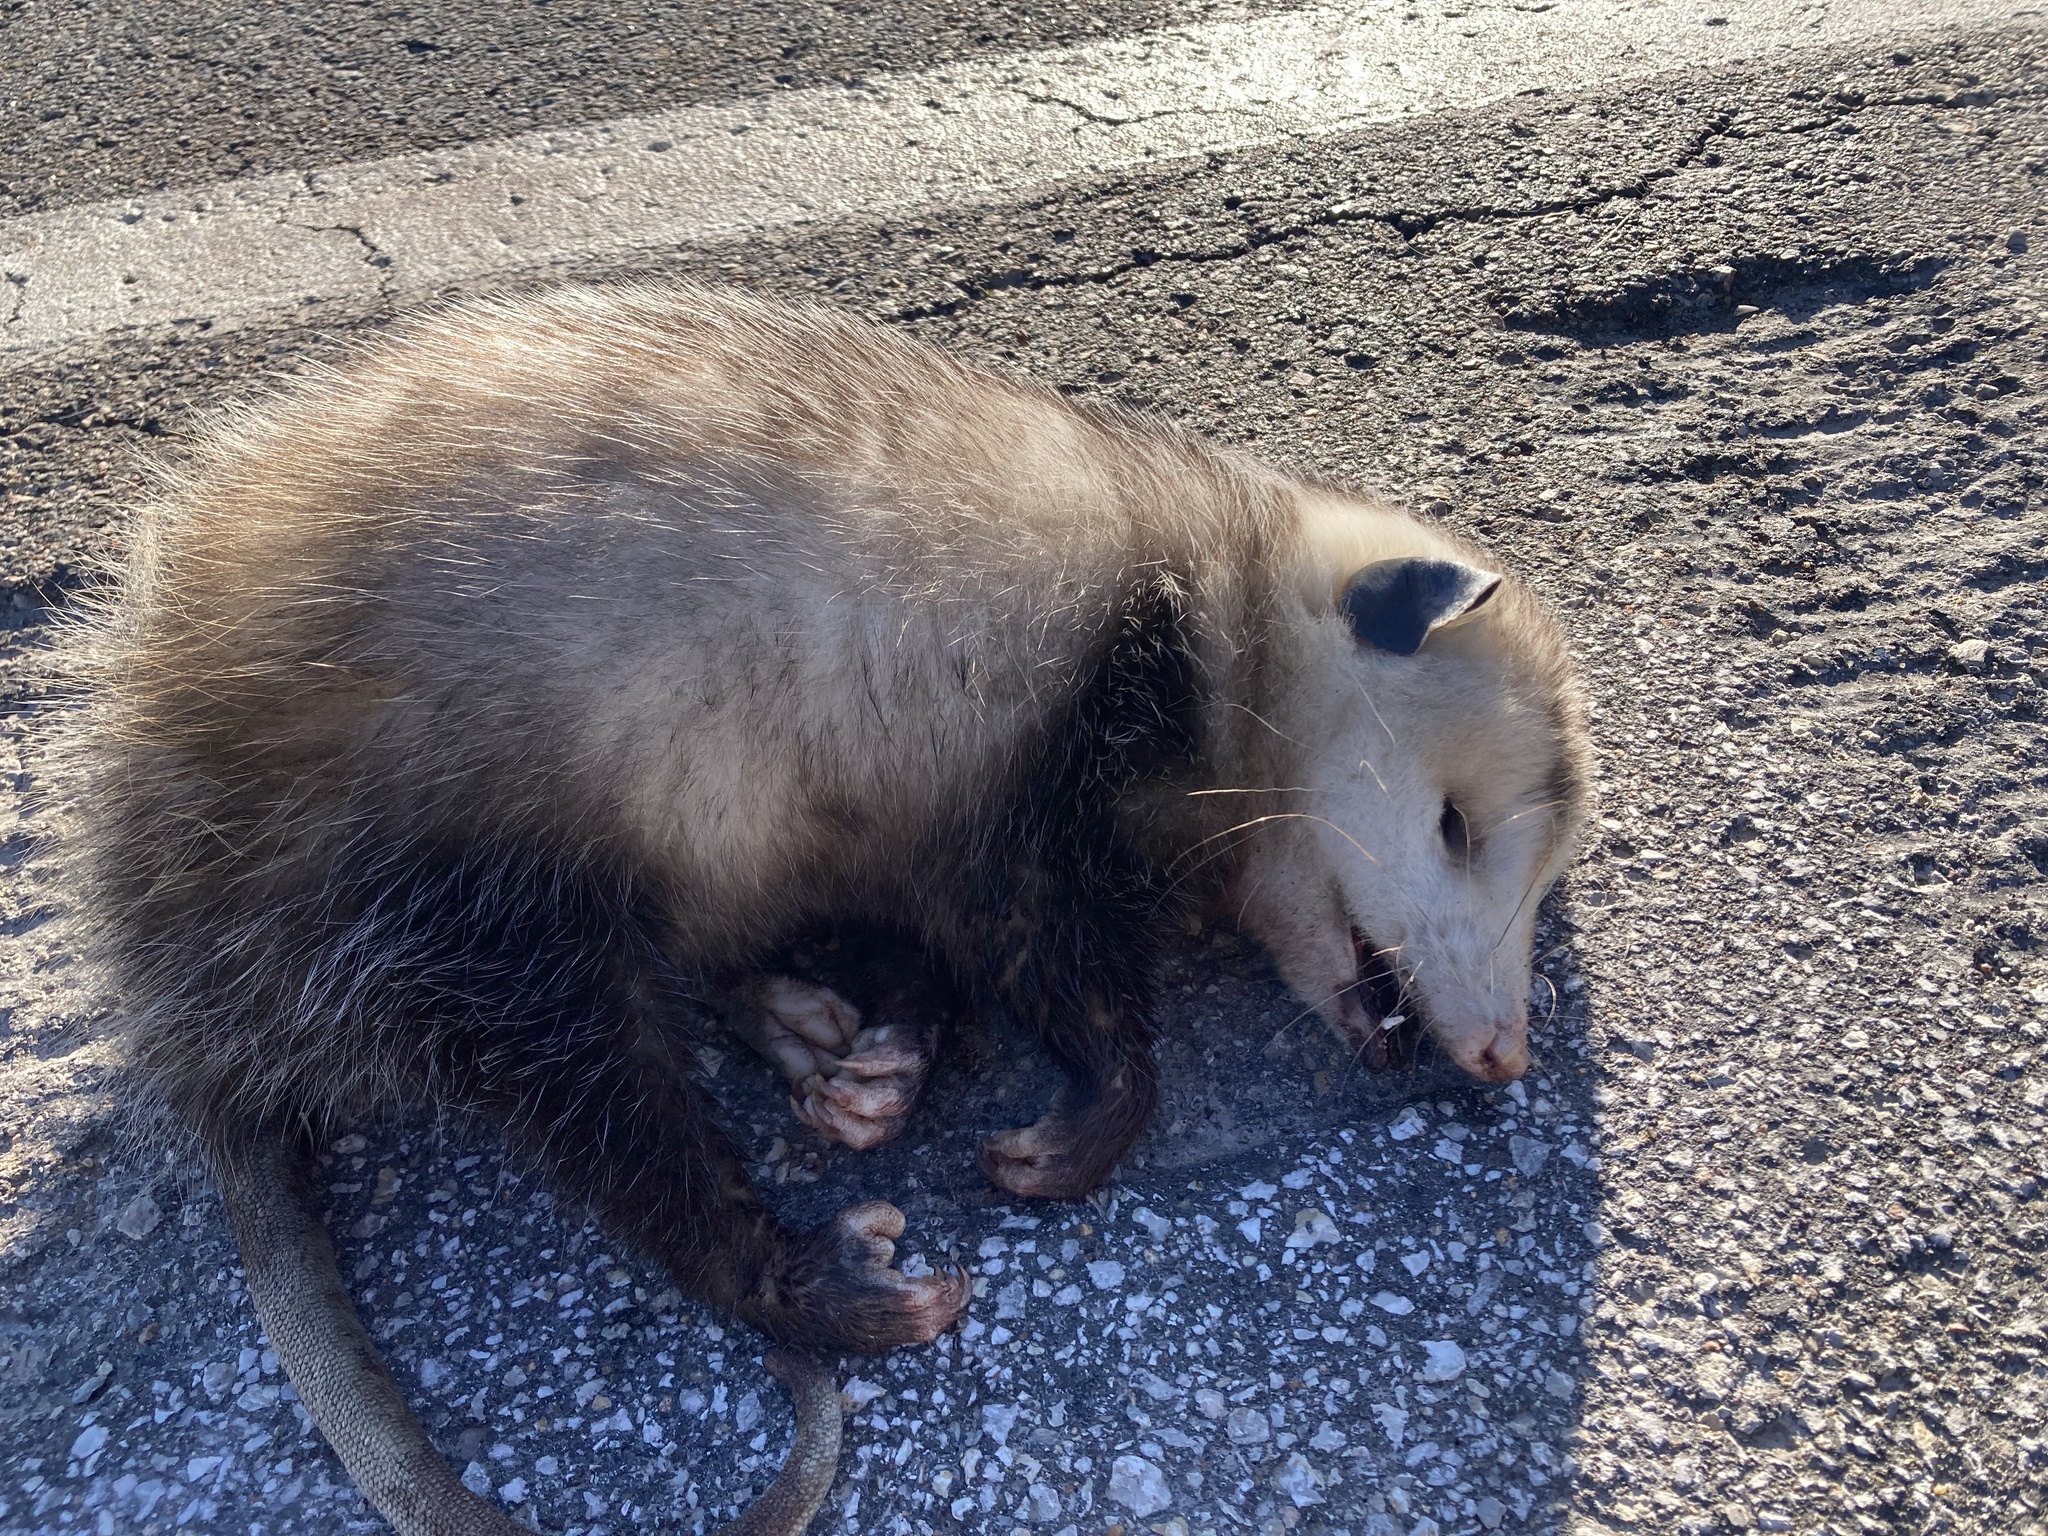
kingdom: Animalia
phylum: Chordata
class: Mammalia
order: Didelphimorphia
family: Didelphidae
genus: Didelphis
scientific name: Didelphis virginiana
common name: Virginia opossum
